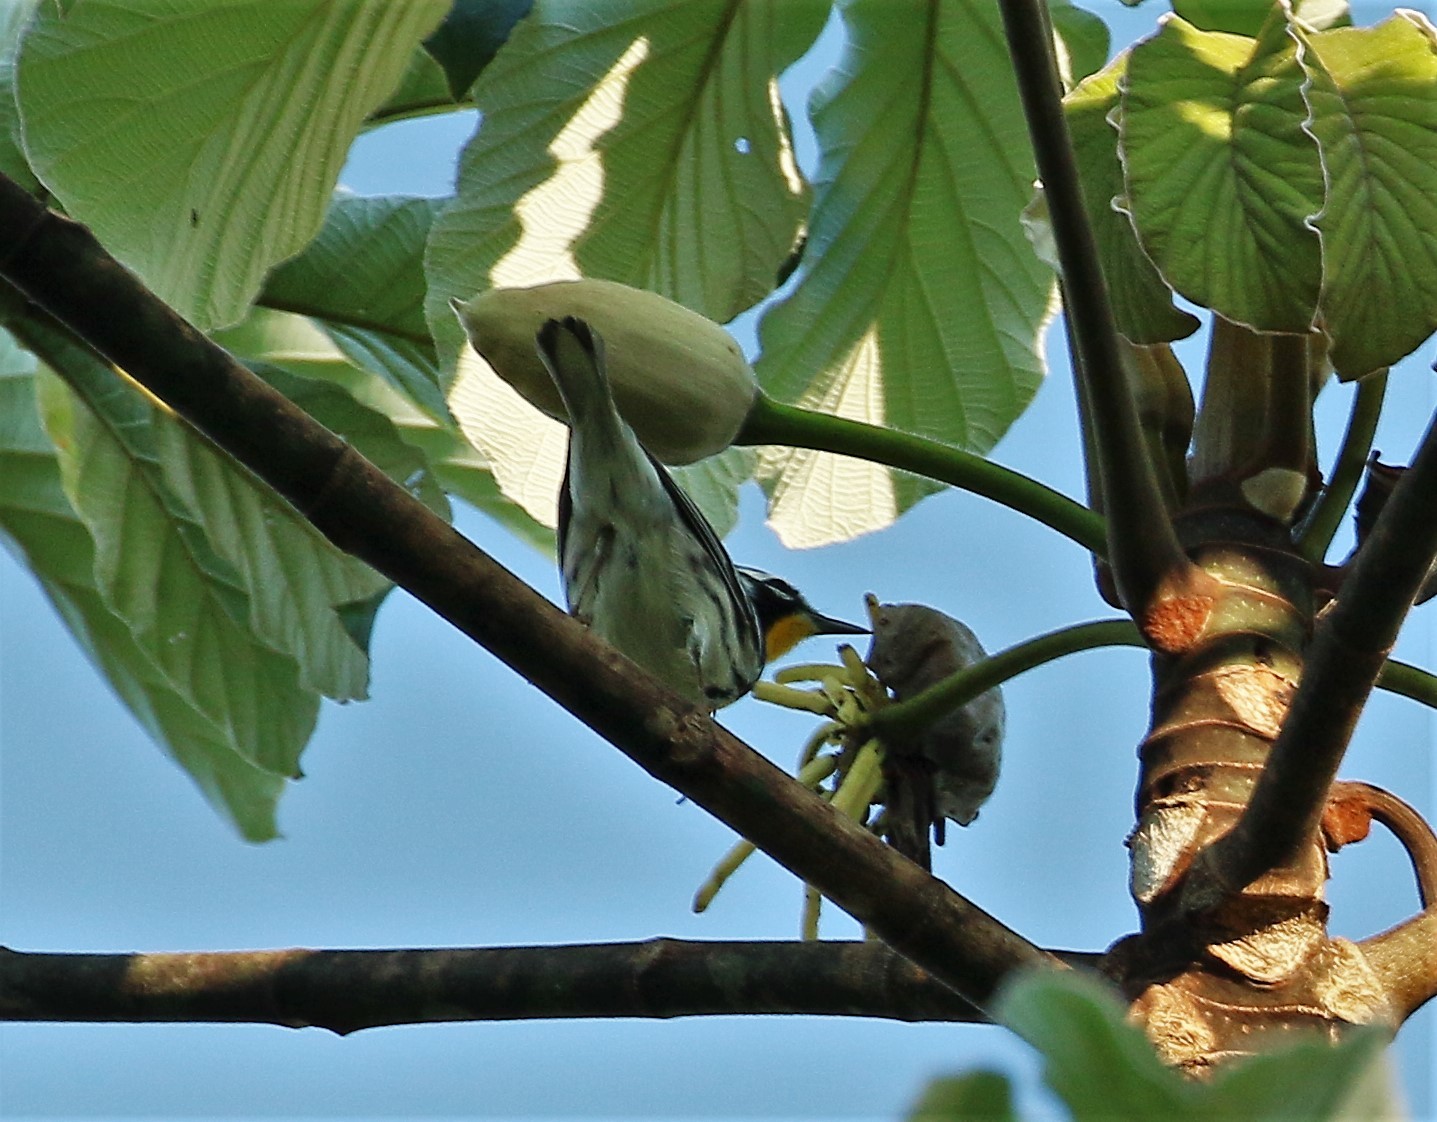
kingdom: Animalia
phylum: Chordata
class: Aves
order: Passeriformes
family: Parulidae
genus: Setophaga
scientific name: Setophaga dominica
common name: Yellow-throated warbler
